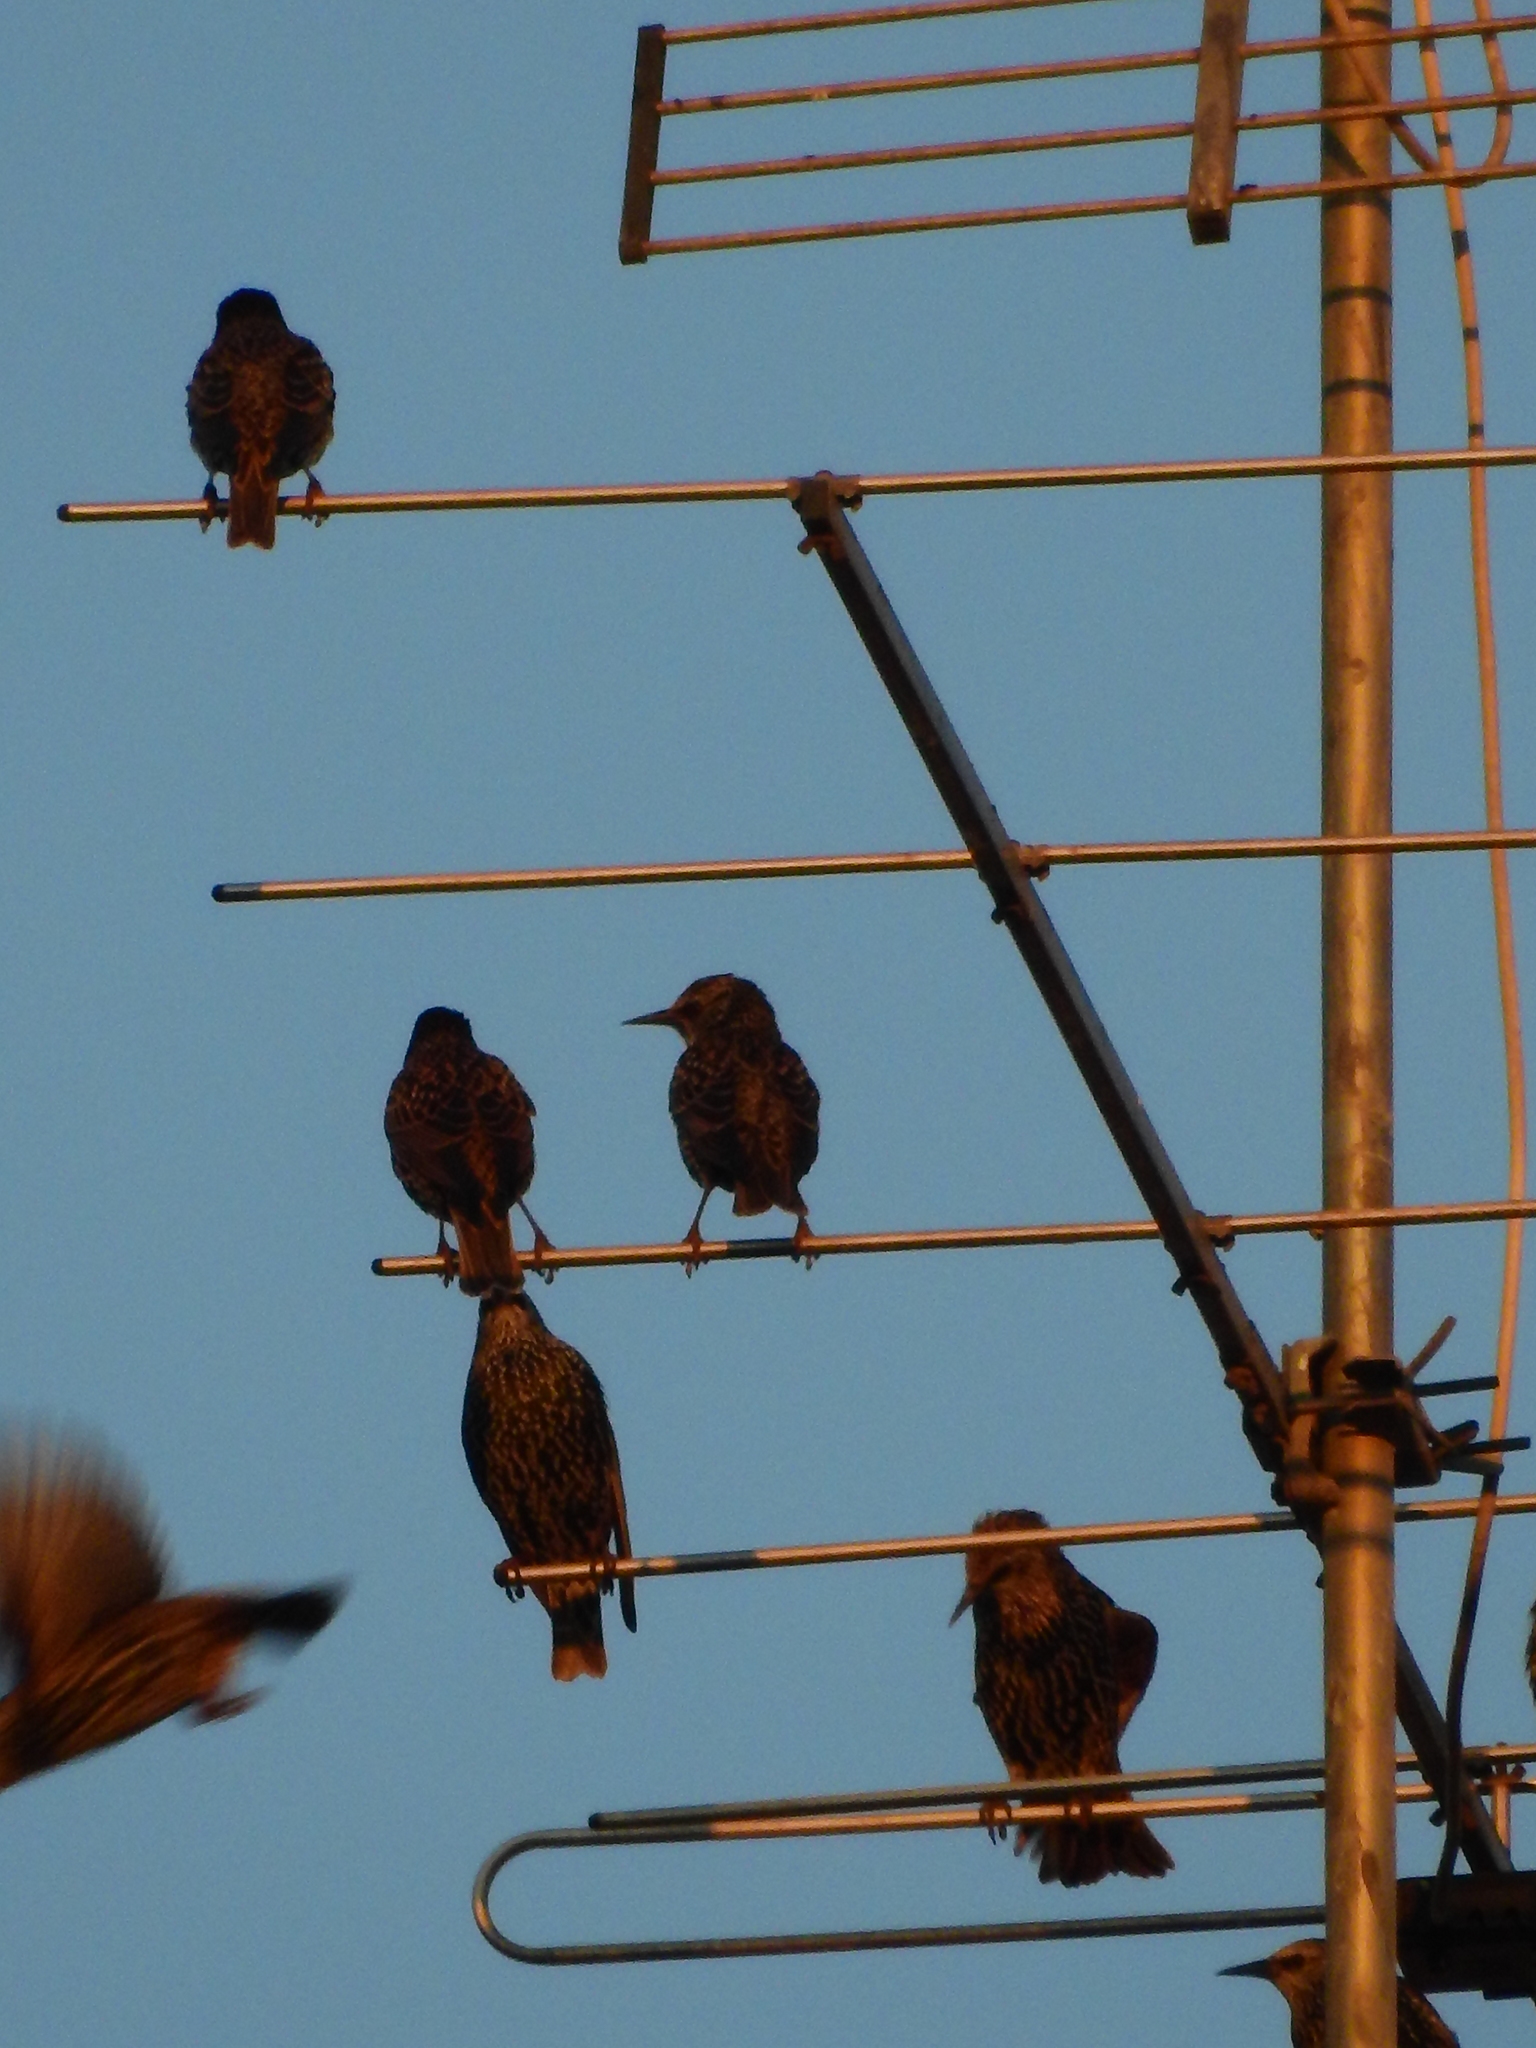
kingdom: Animalia
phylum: Chordata
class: Aves
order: Passeriformes
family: Sturnidae
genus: Sturnus
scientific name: Sturnus vulgaris
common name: Common starling
